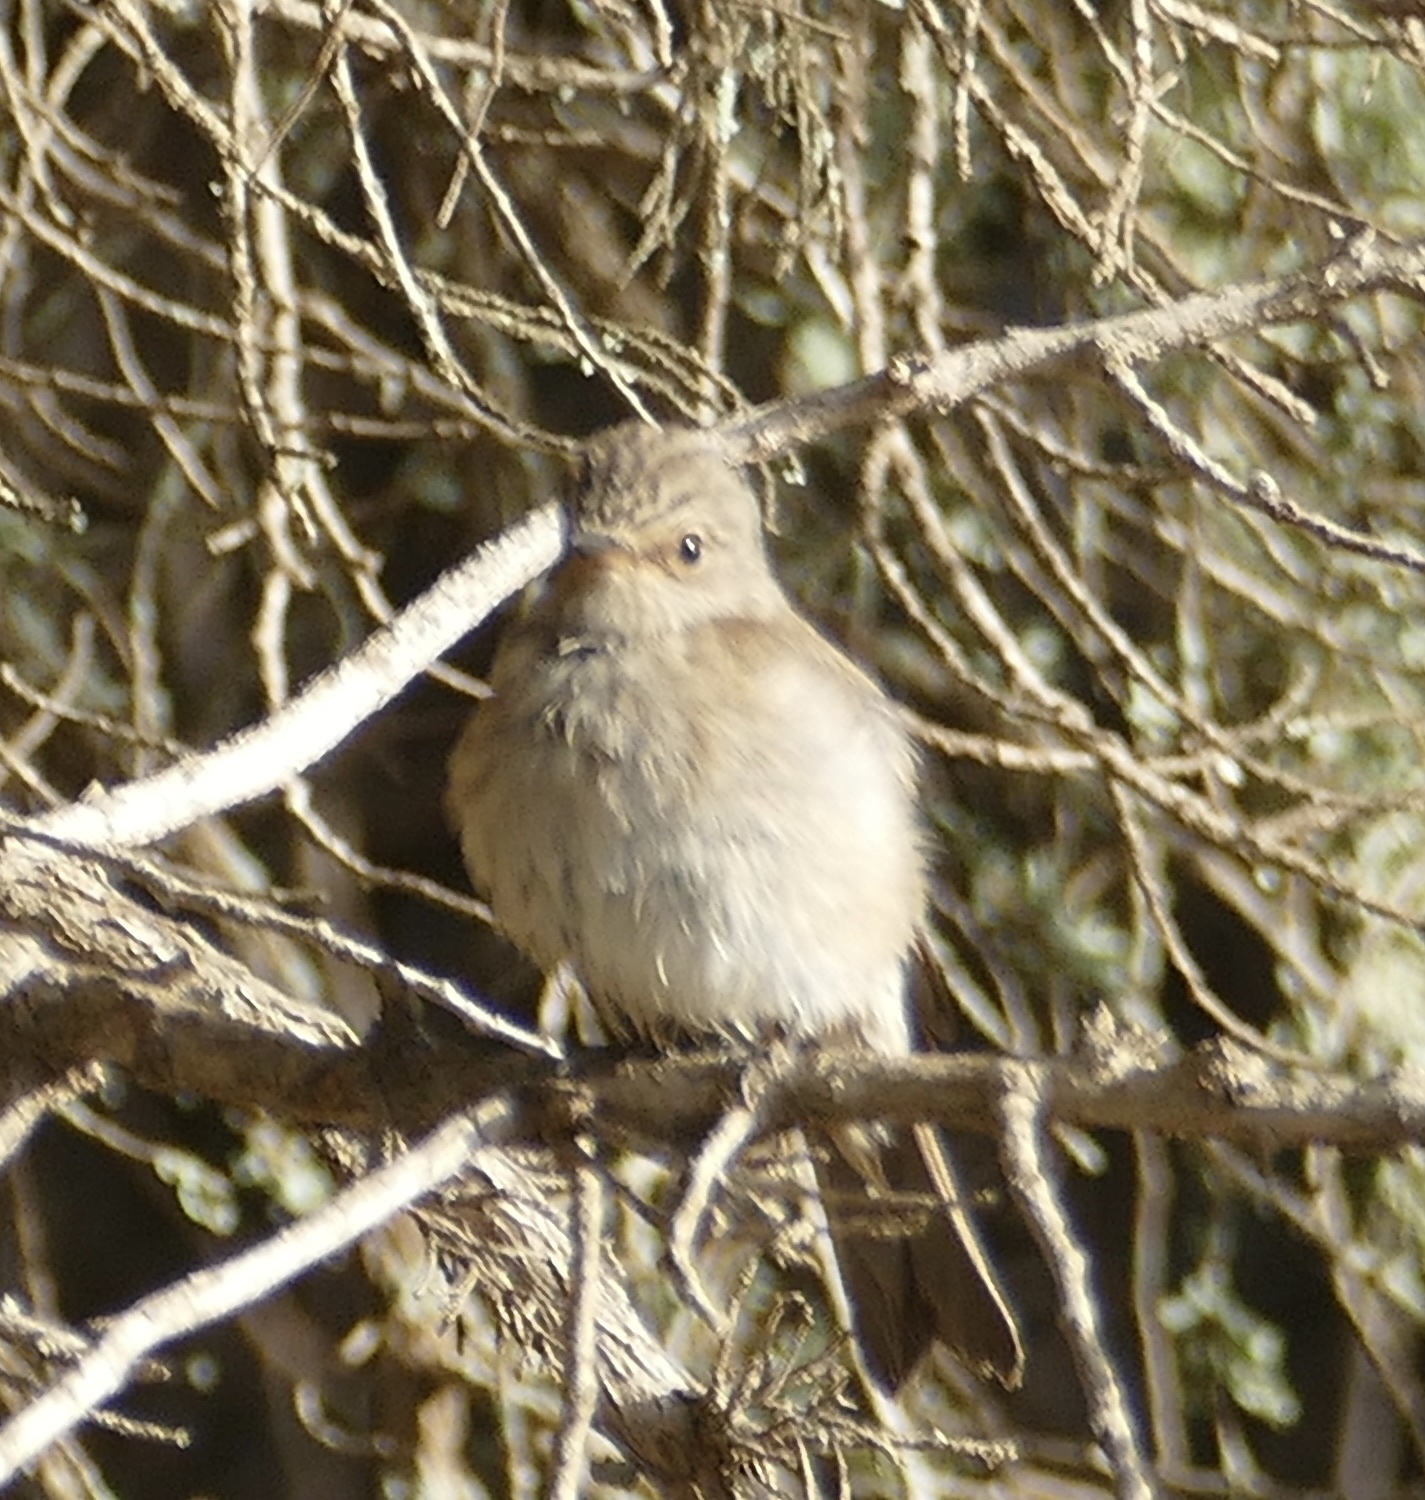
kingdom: Animalia
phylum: Chordata
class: Aves
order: Passeriformes
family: Muscicapidae
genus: Muscicapa
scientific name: Muscicapa striata
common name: Spotted flycatcher
